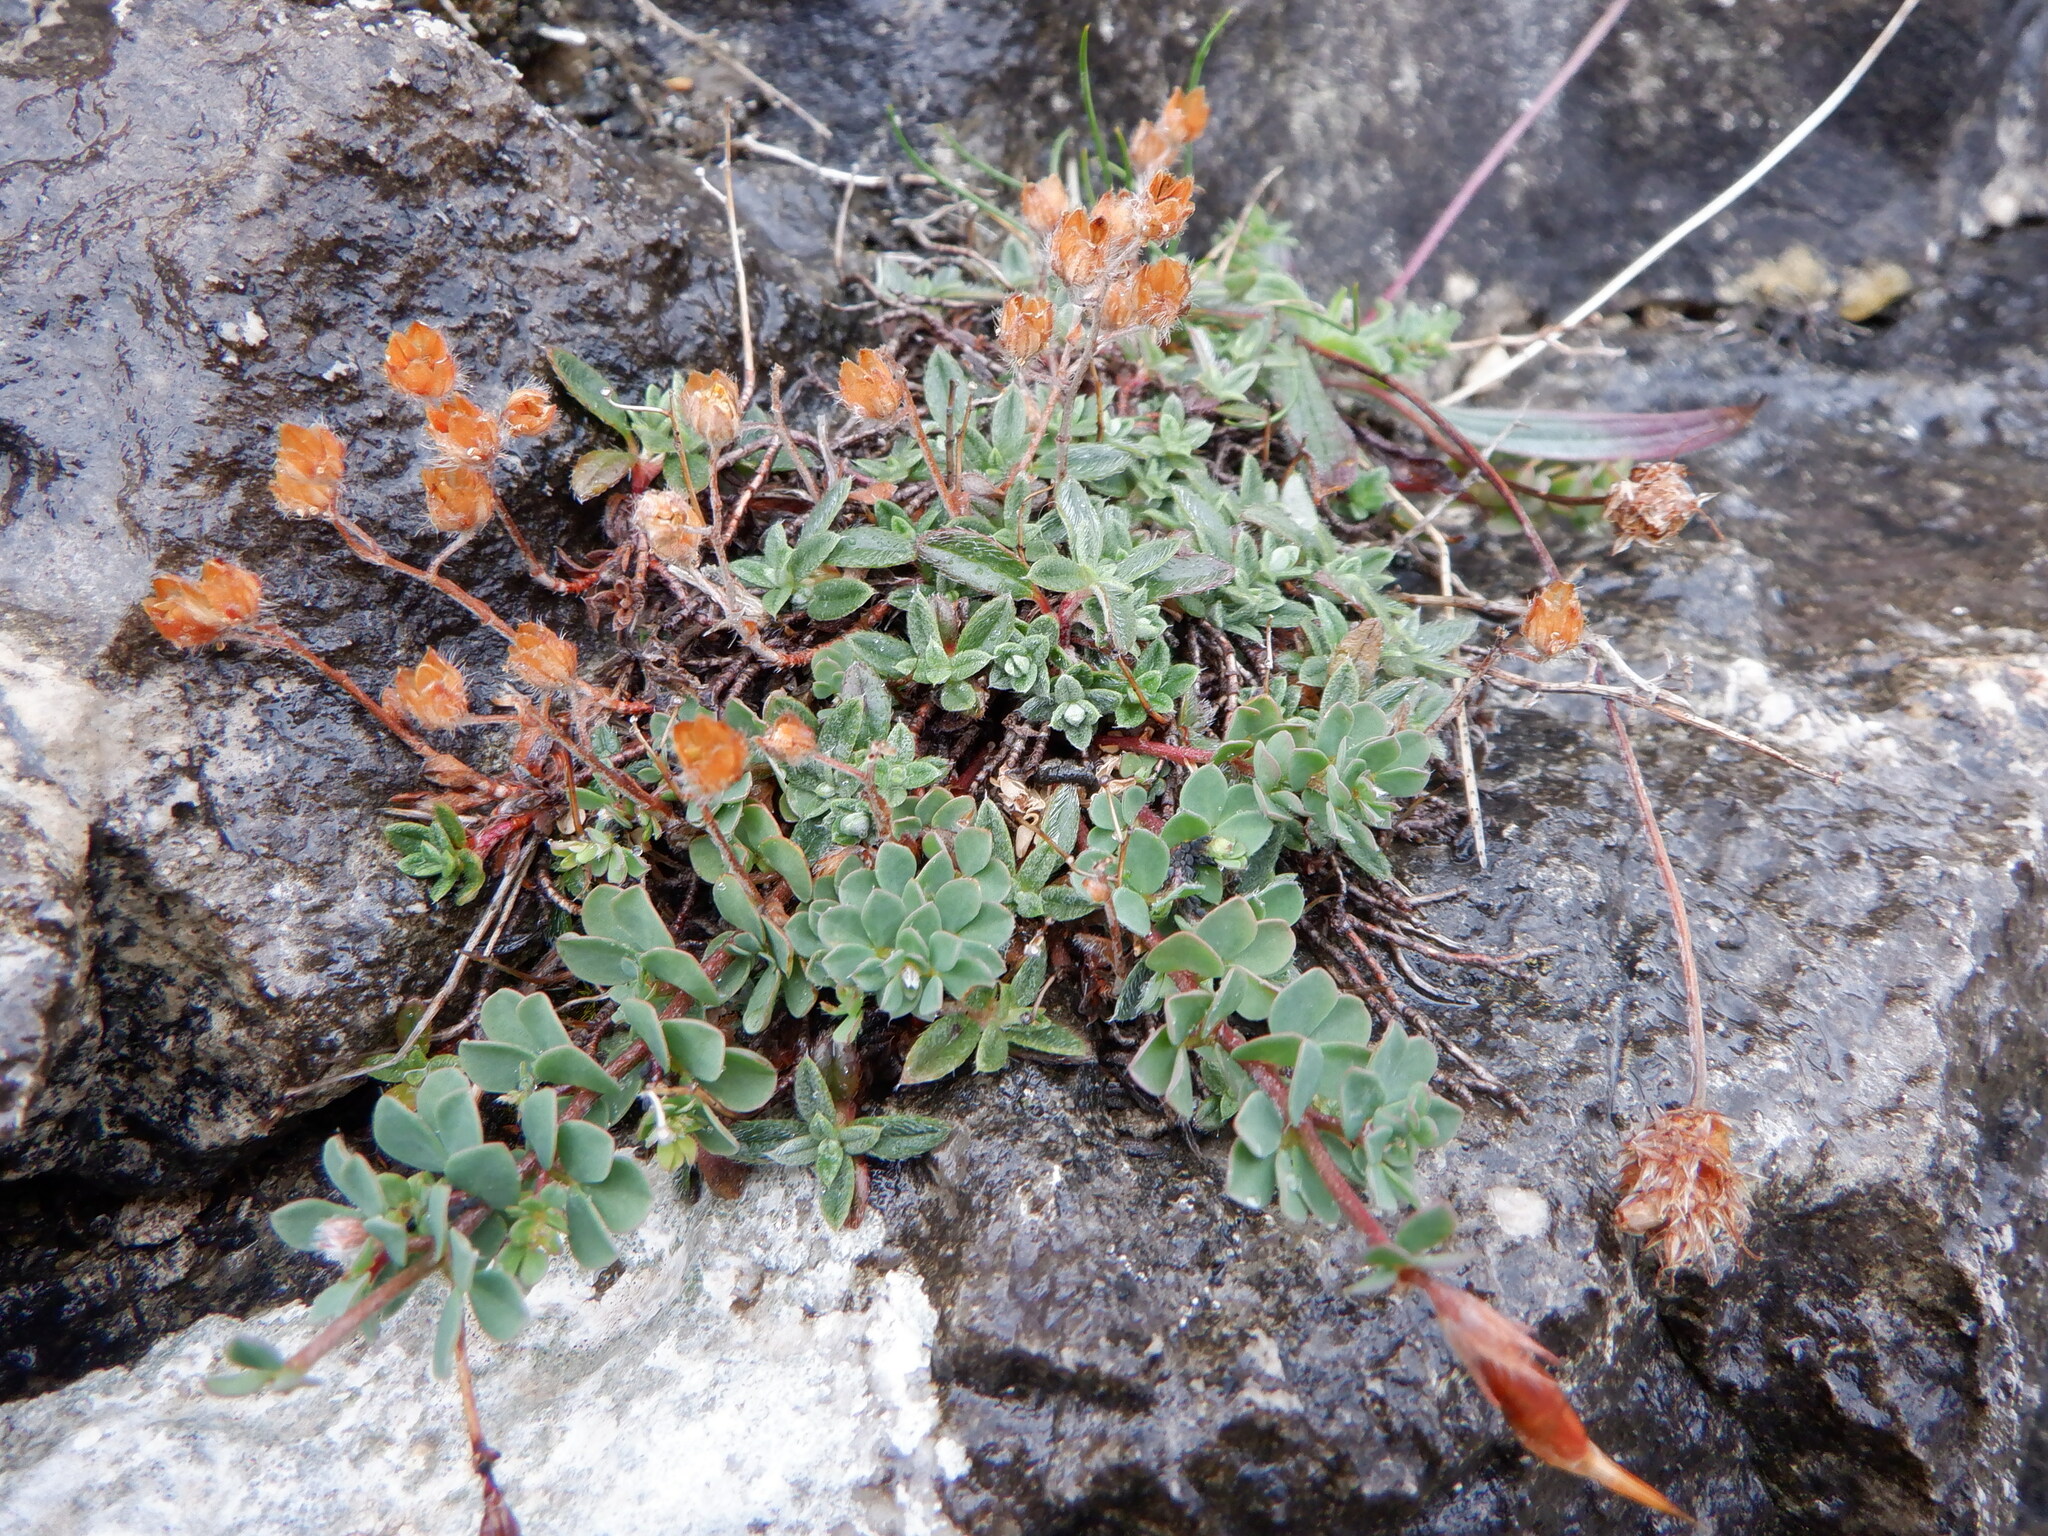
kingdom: Plantae
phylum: Tracheophyta
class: Magnoliopsida
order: Saxifragales
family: Crassulaceae
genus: Rhodiola
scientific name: Rhodiola rosea
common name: Roseroot
